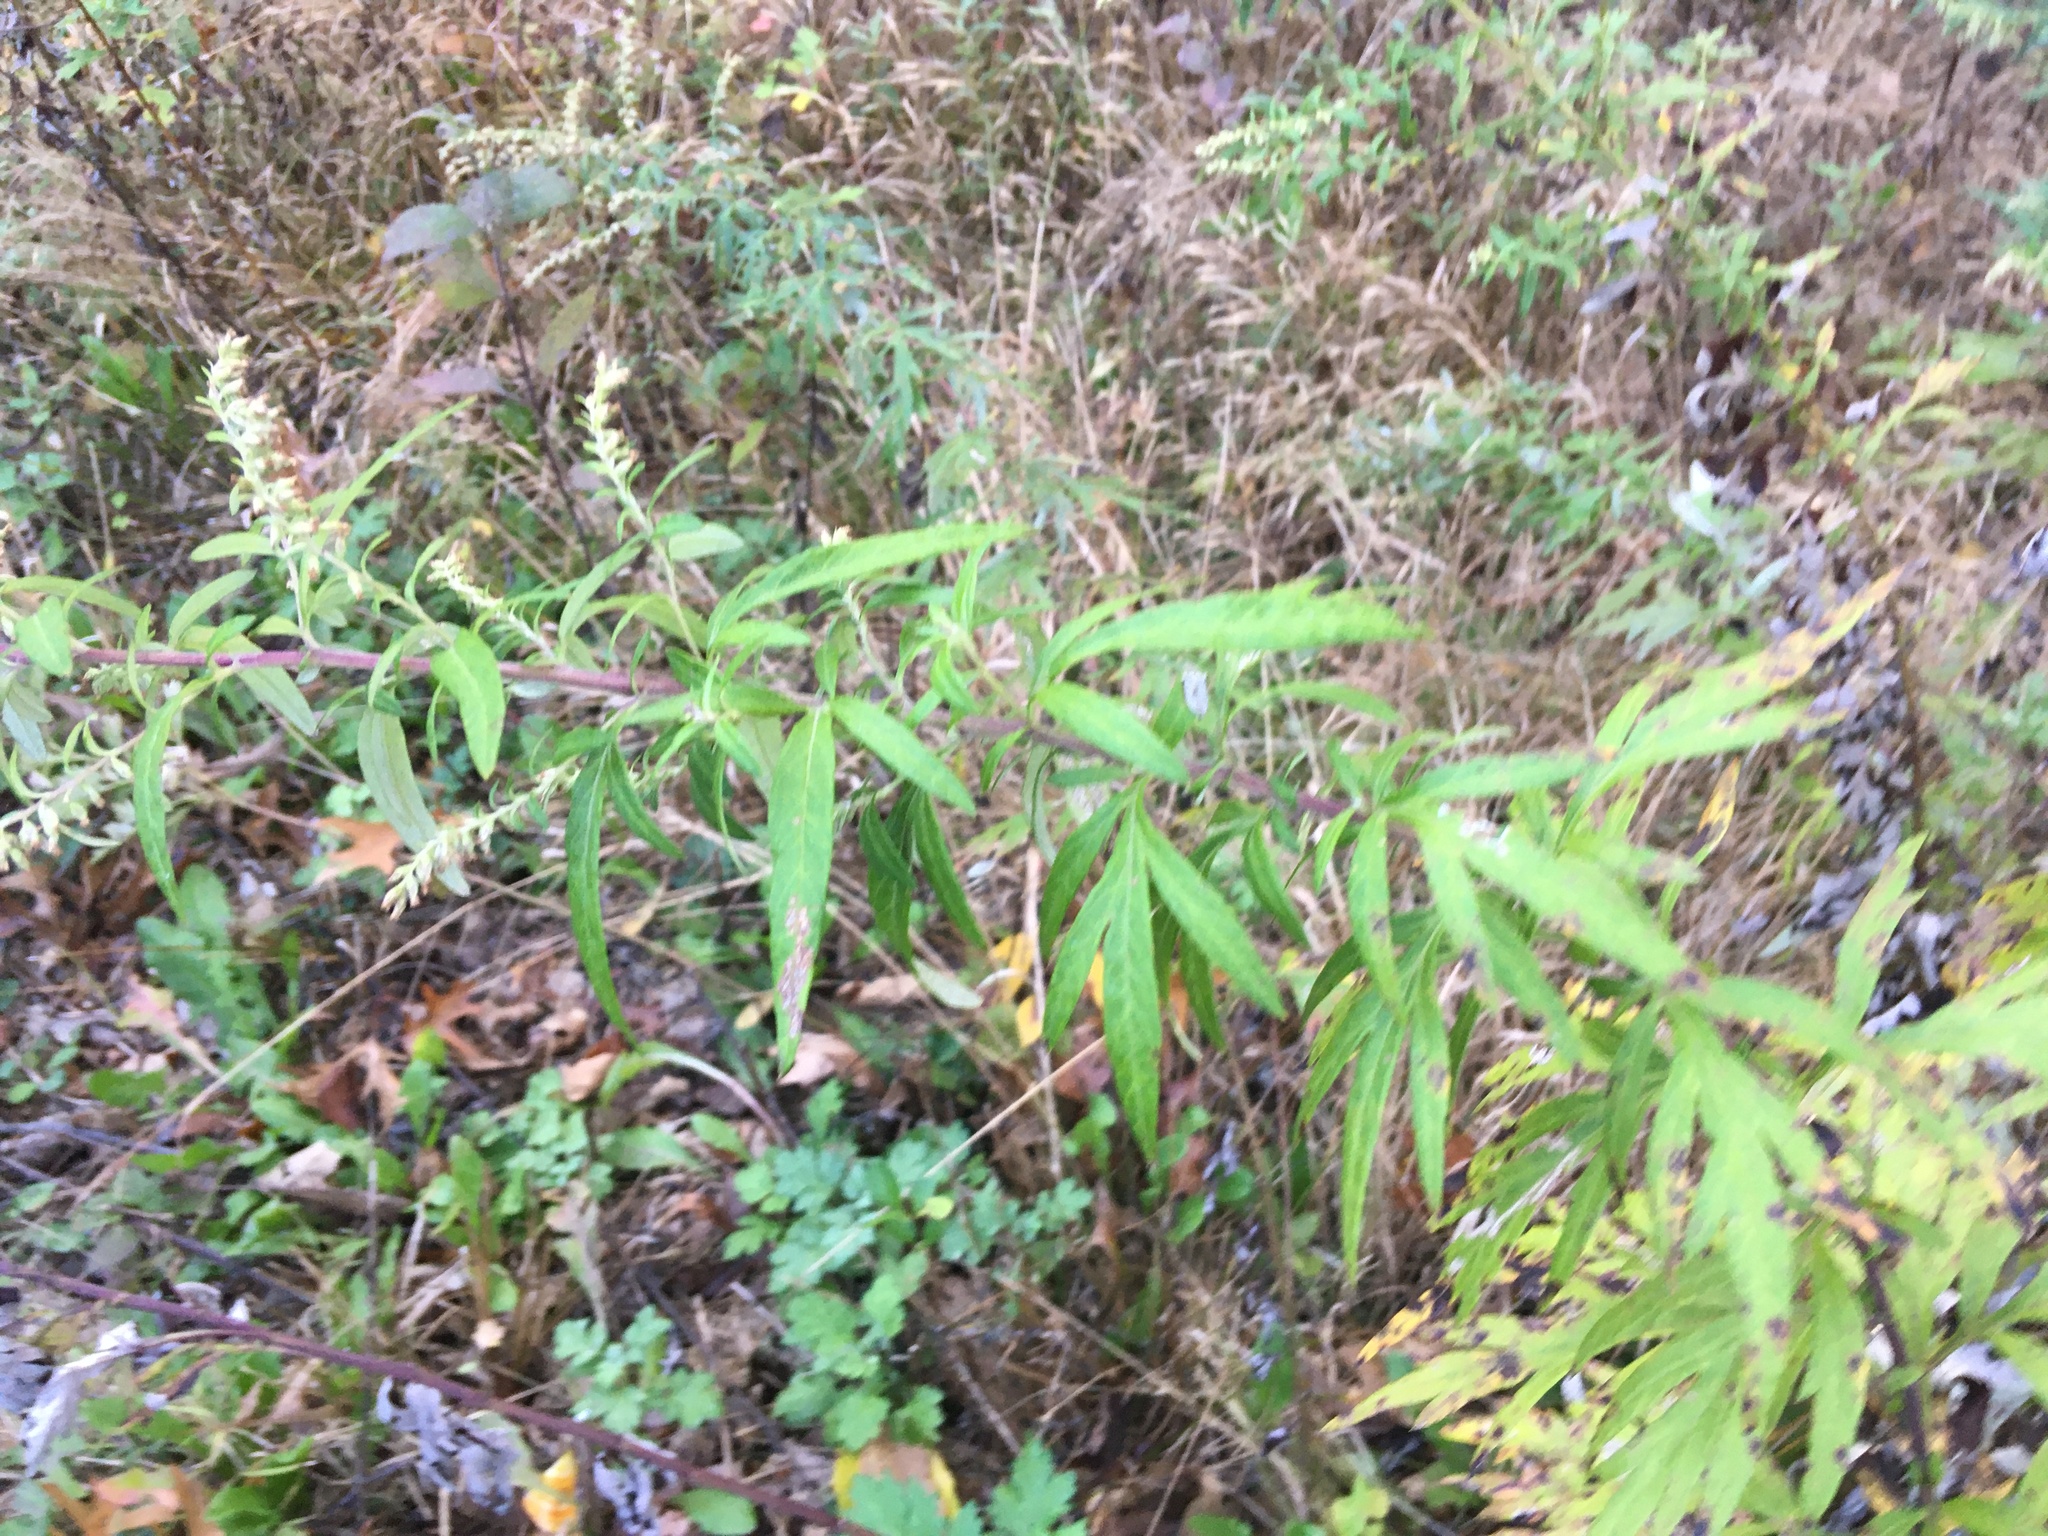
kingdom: Plantae
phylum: Tracheophyta
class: Magnoliopsida
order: Asterales
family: Asteraceae
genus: Artemisia
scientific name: Artemisia vulgaris
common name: Mugwort
